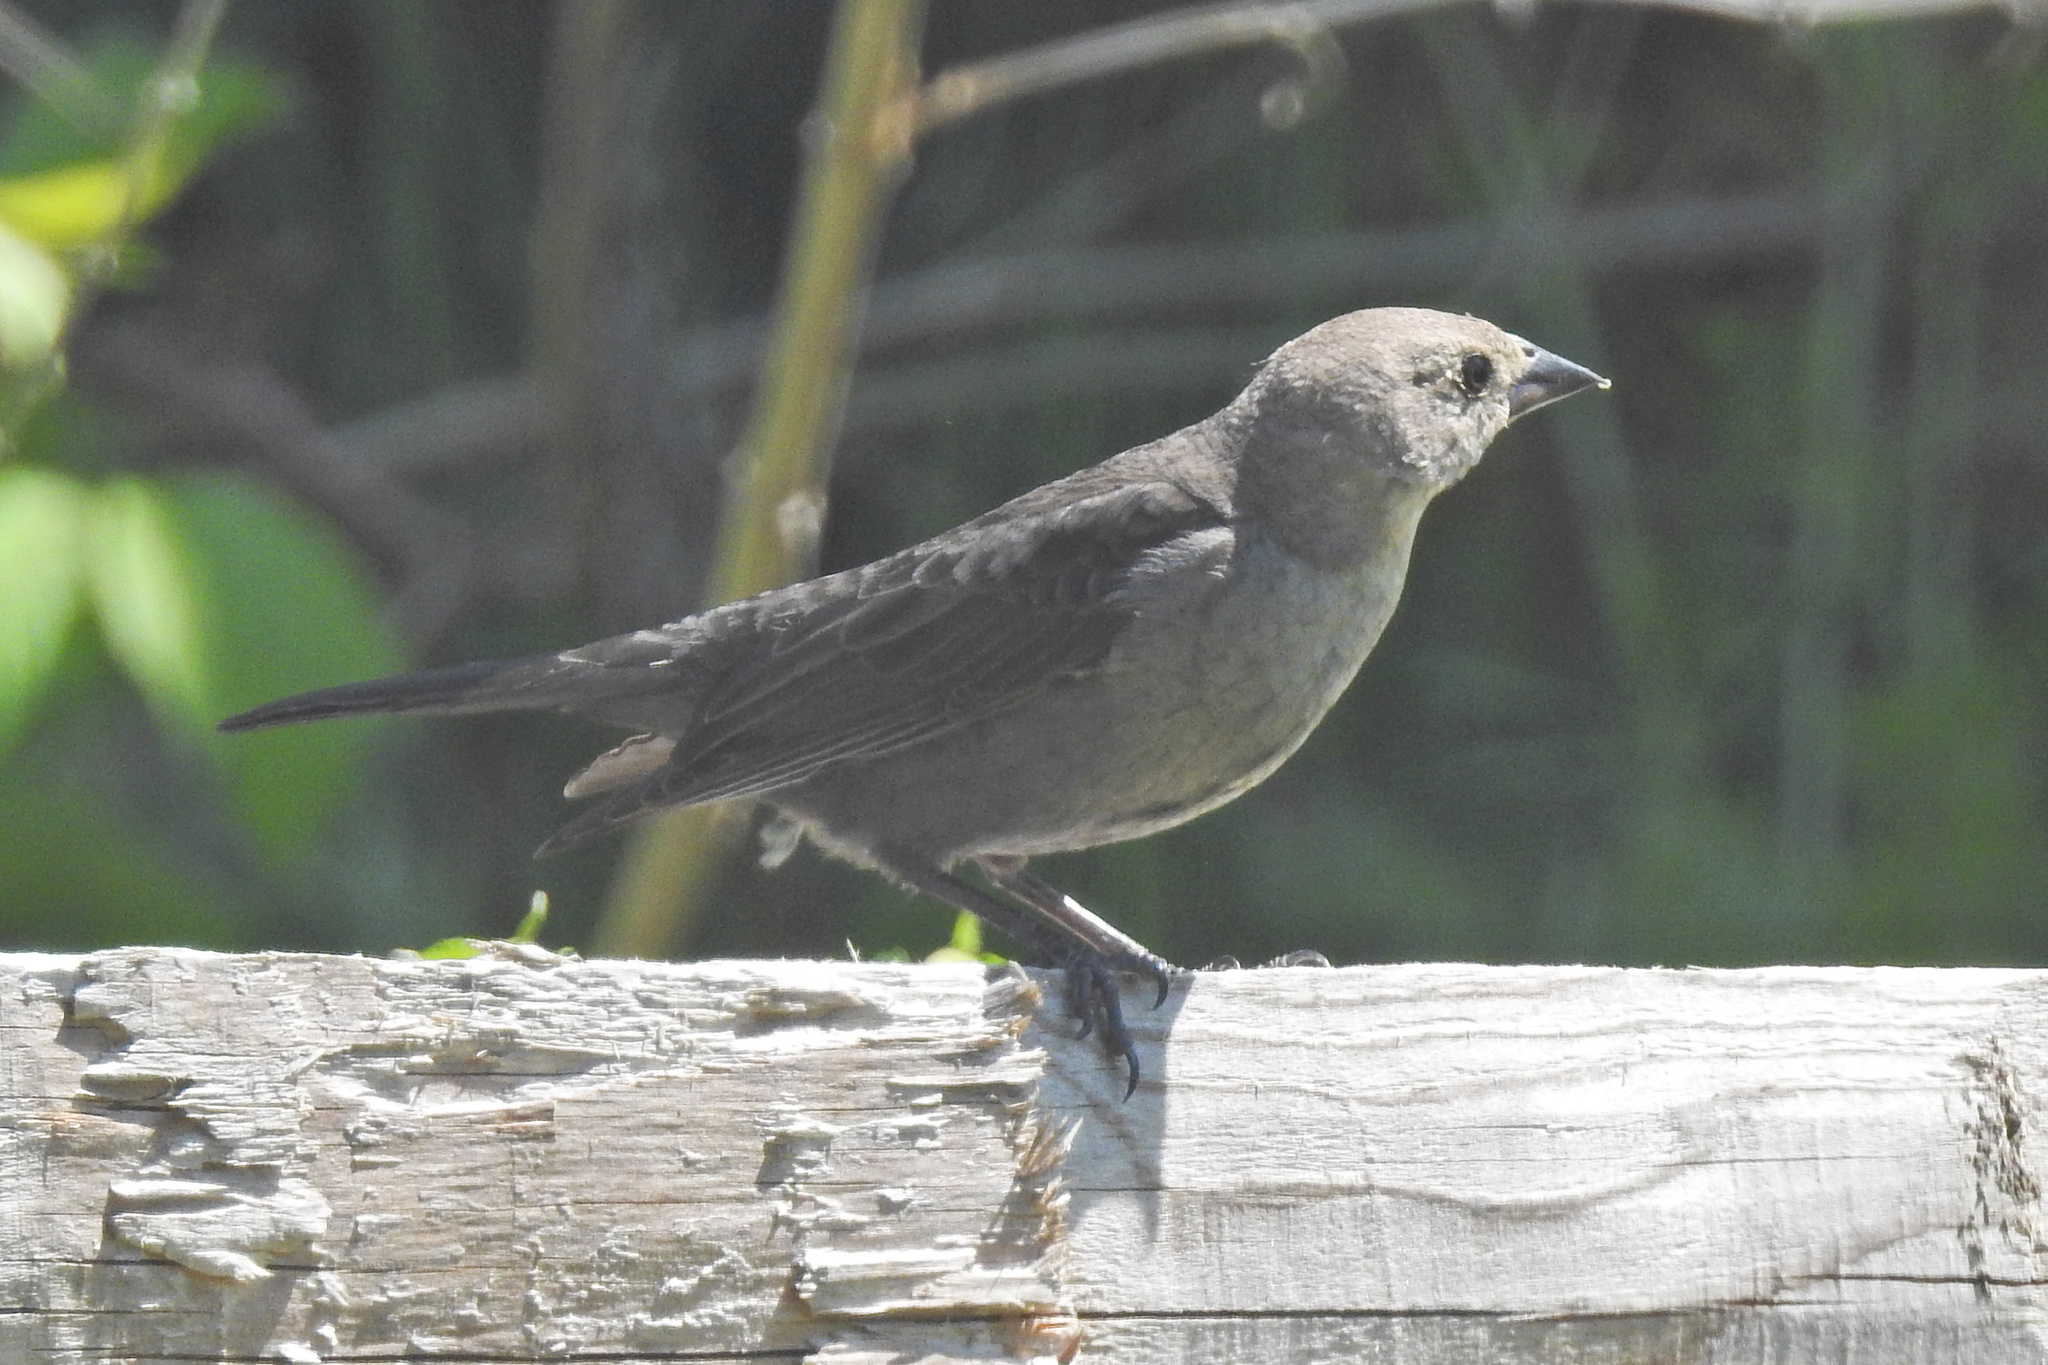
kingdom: Animalia
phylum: Chordata
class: Aves
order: Passeriformes
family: Icteridae
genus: Molothrus
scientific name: Molothrus ater
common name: Brown-headed cowbird
